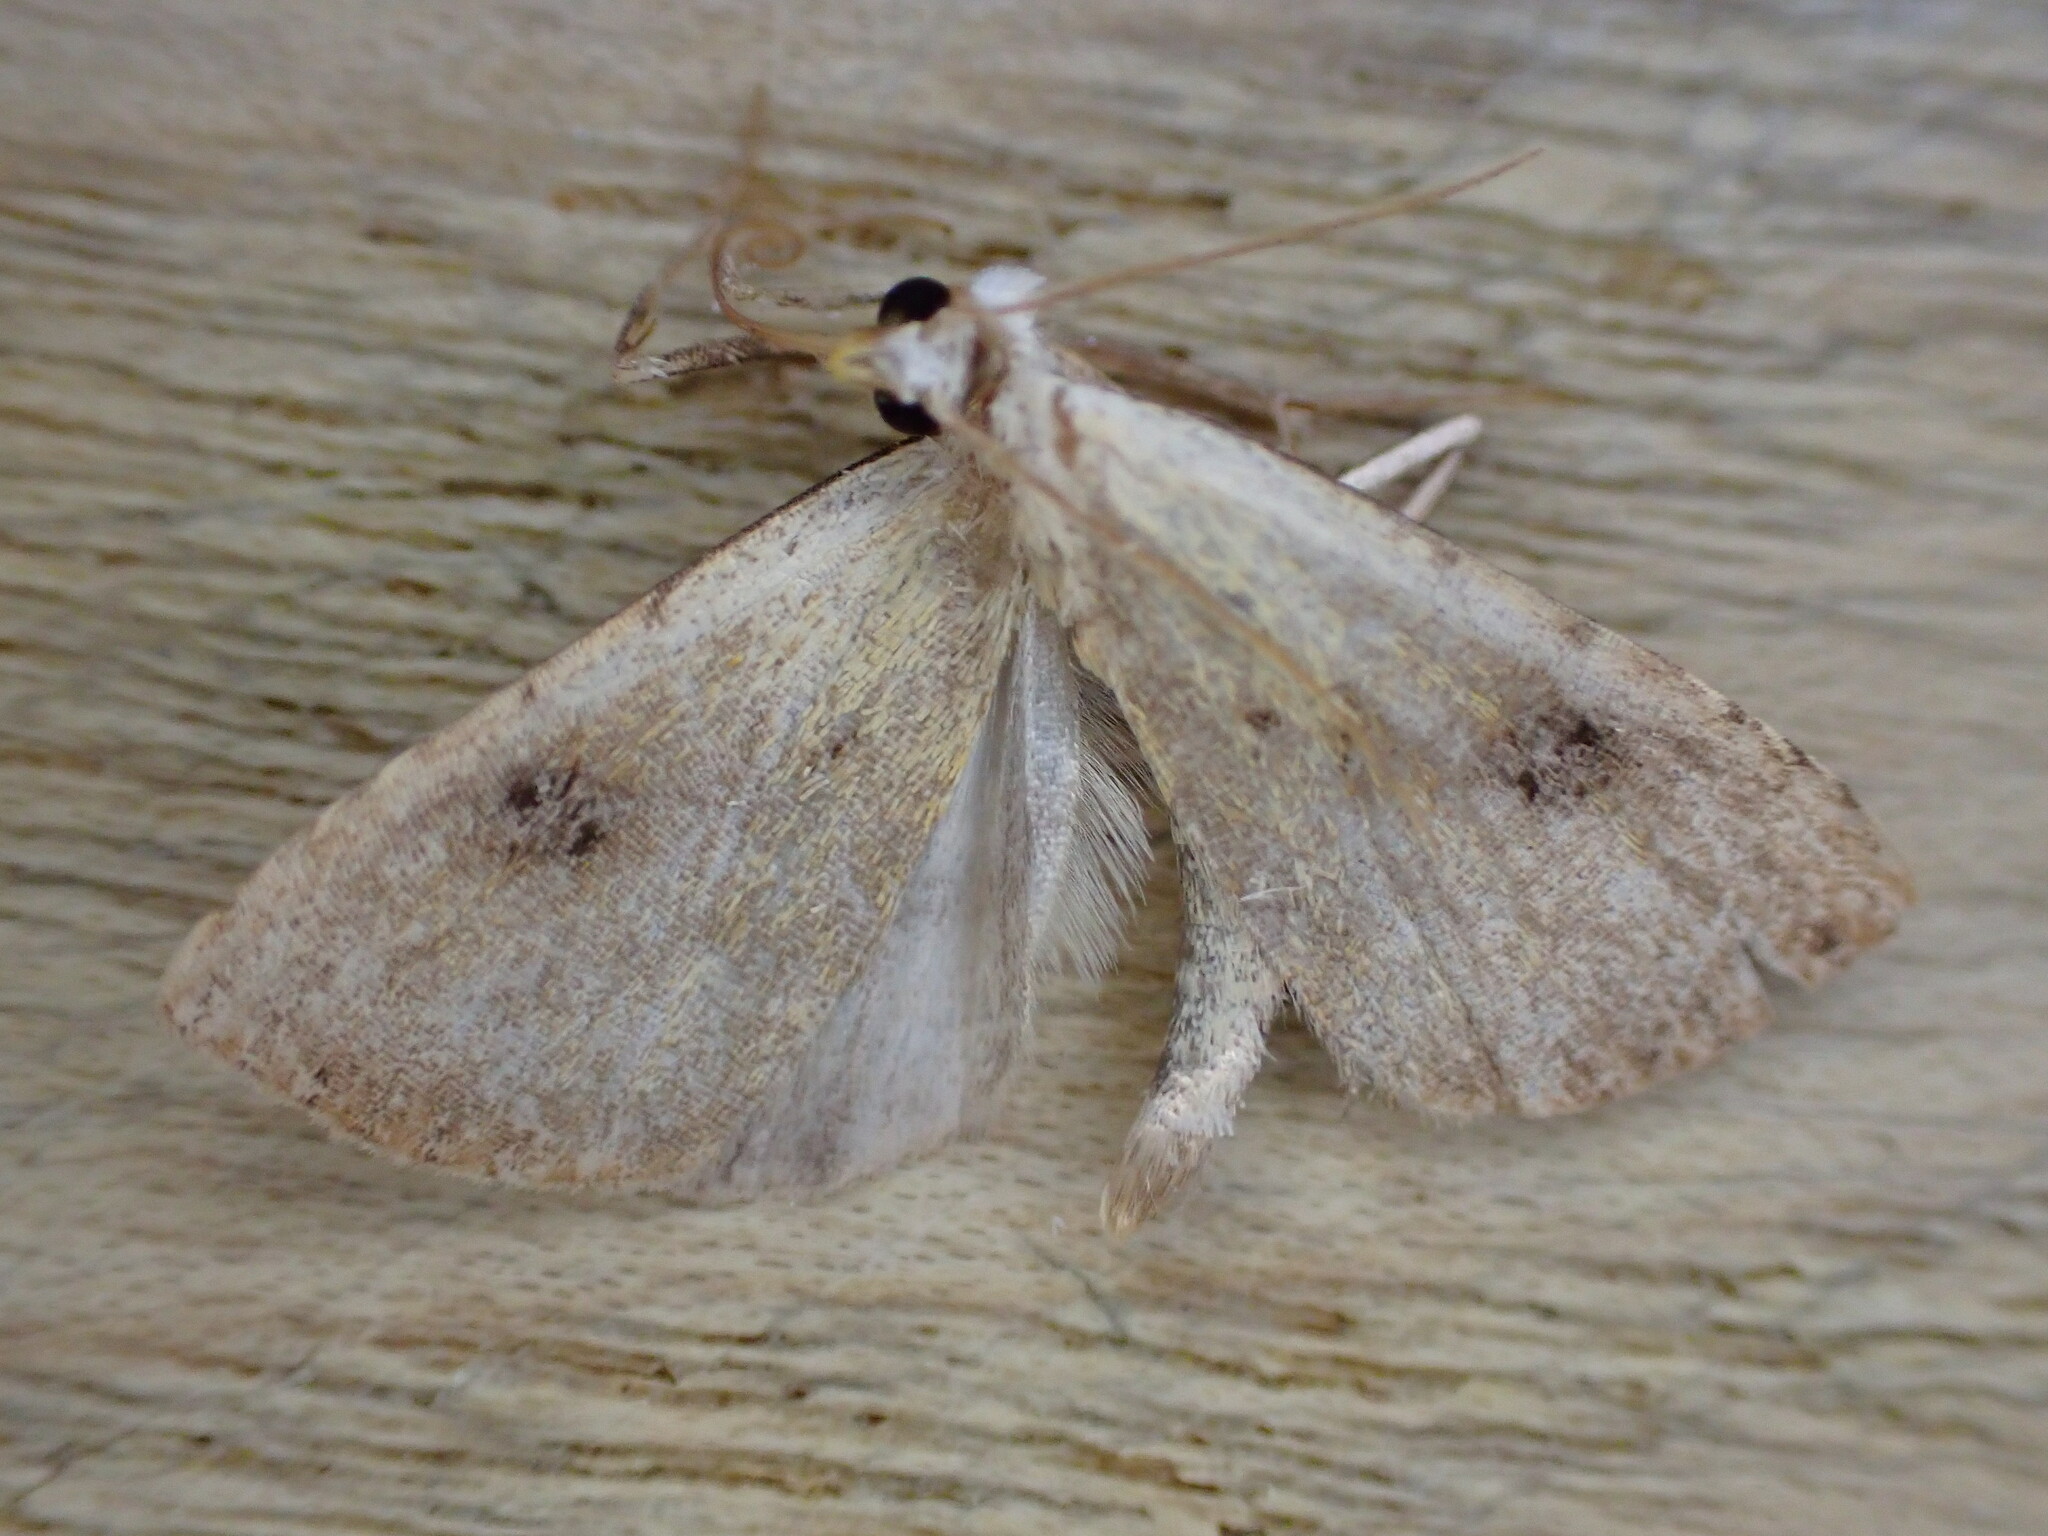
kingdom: Animalia
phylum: Arthropoda
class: Insecta
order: Lepidoptera
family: Erebidae
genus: Rivula
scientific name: Rivula sericealis
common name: Straw dot
